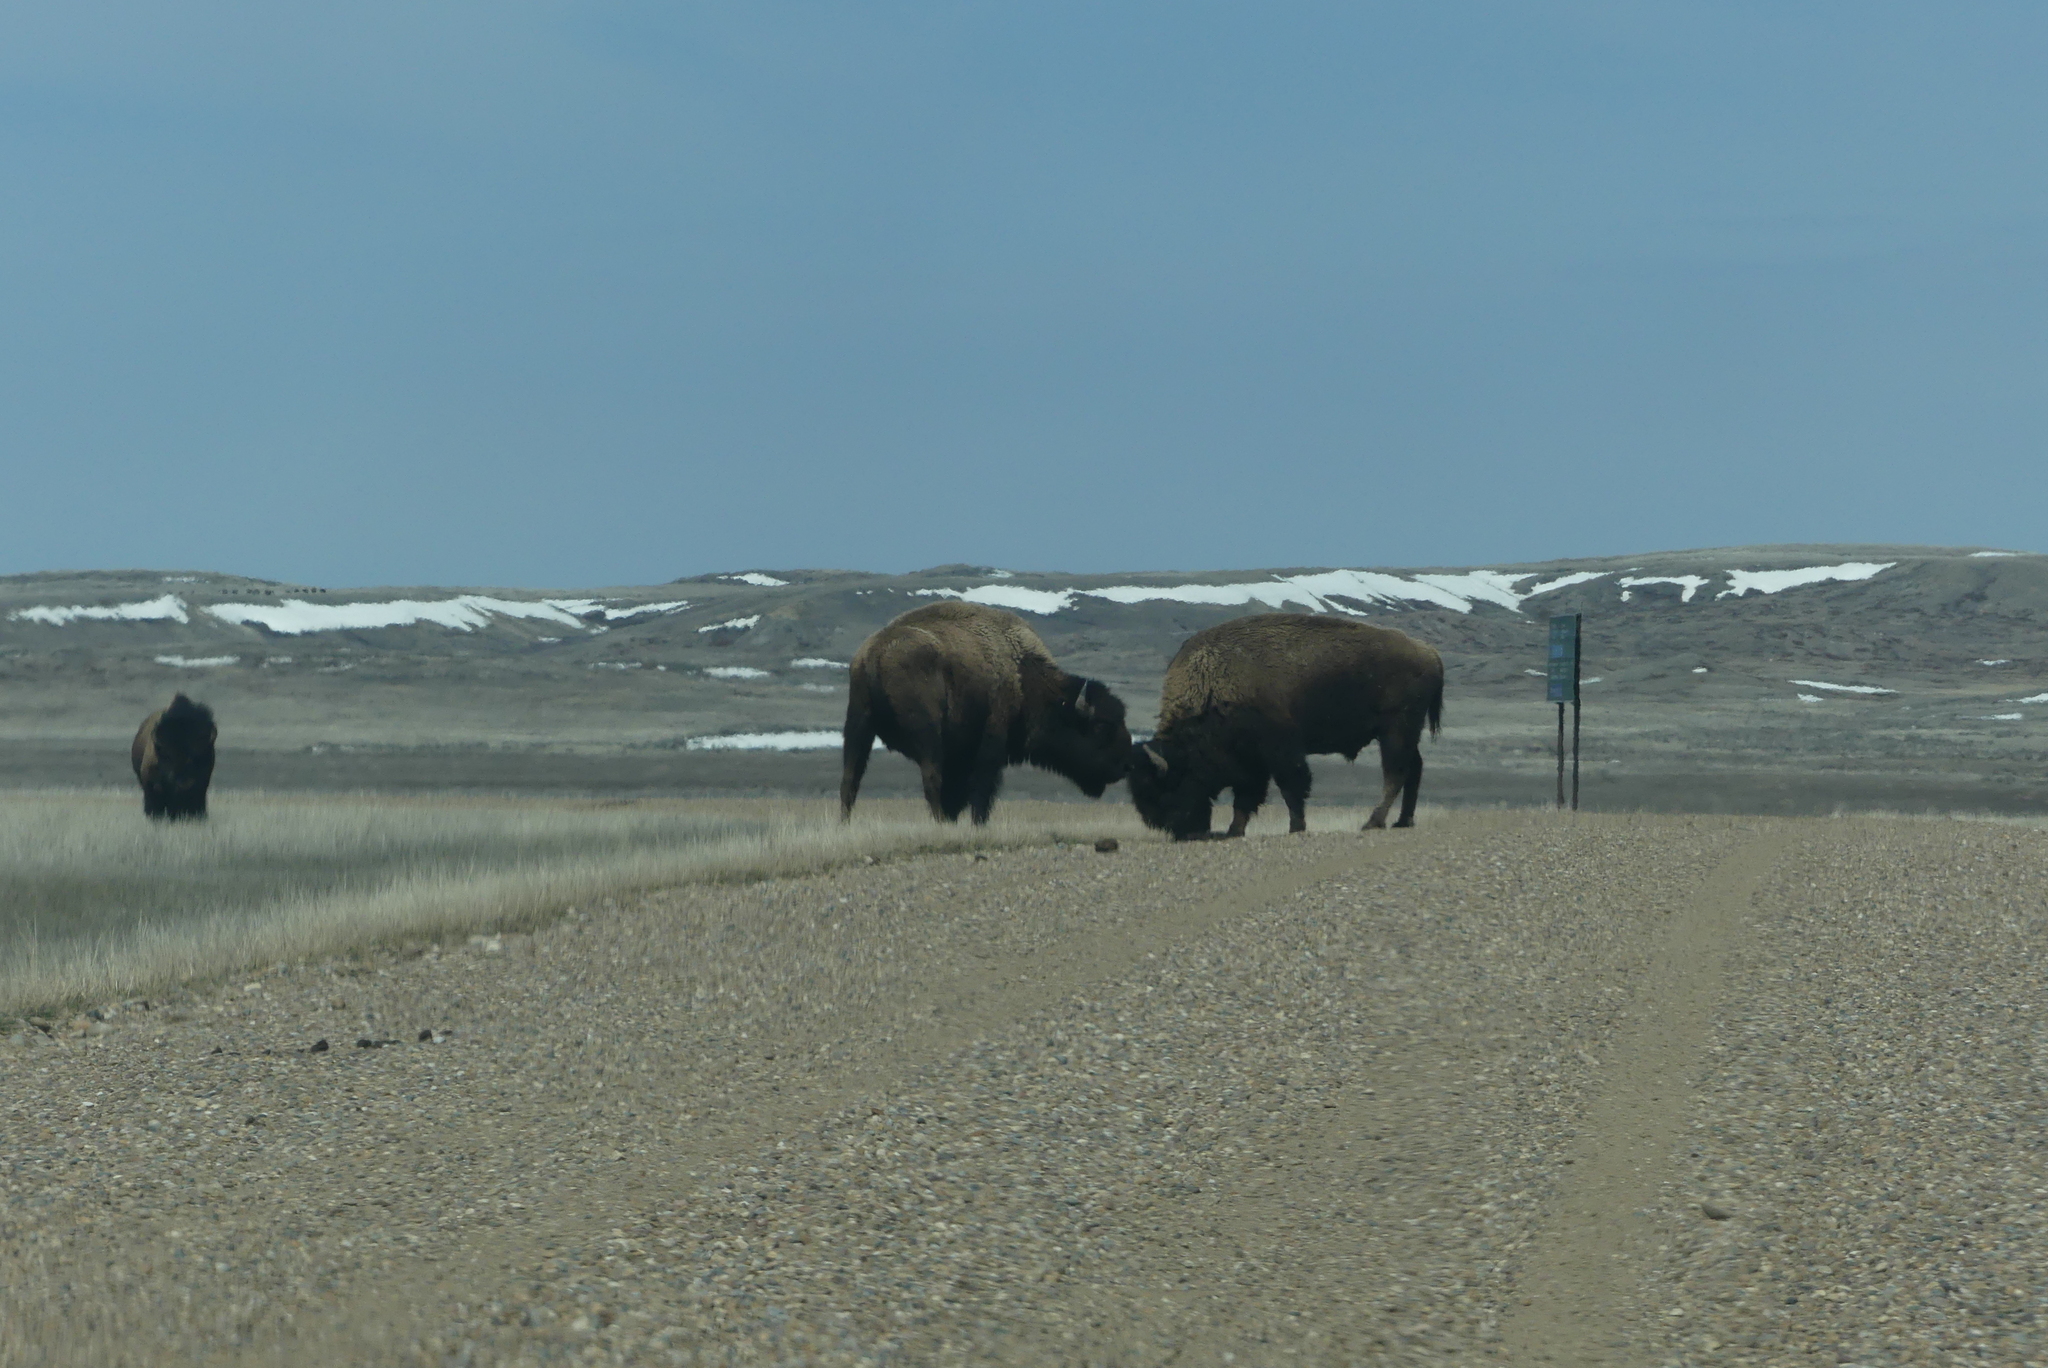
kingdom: Animalia
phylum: Chordata
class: Mammalia
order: Artiodactyla
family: Bovidae
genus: Bison
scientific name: Bison bison
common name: American bison
